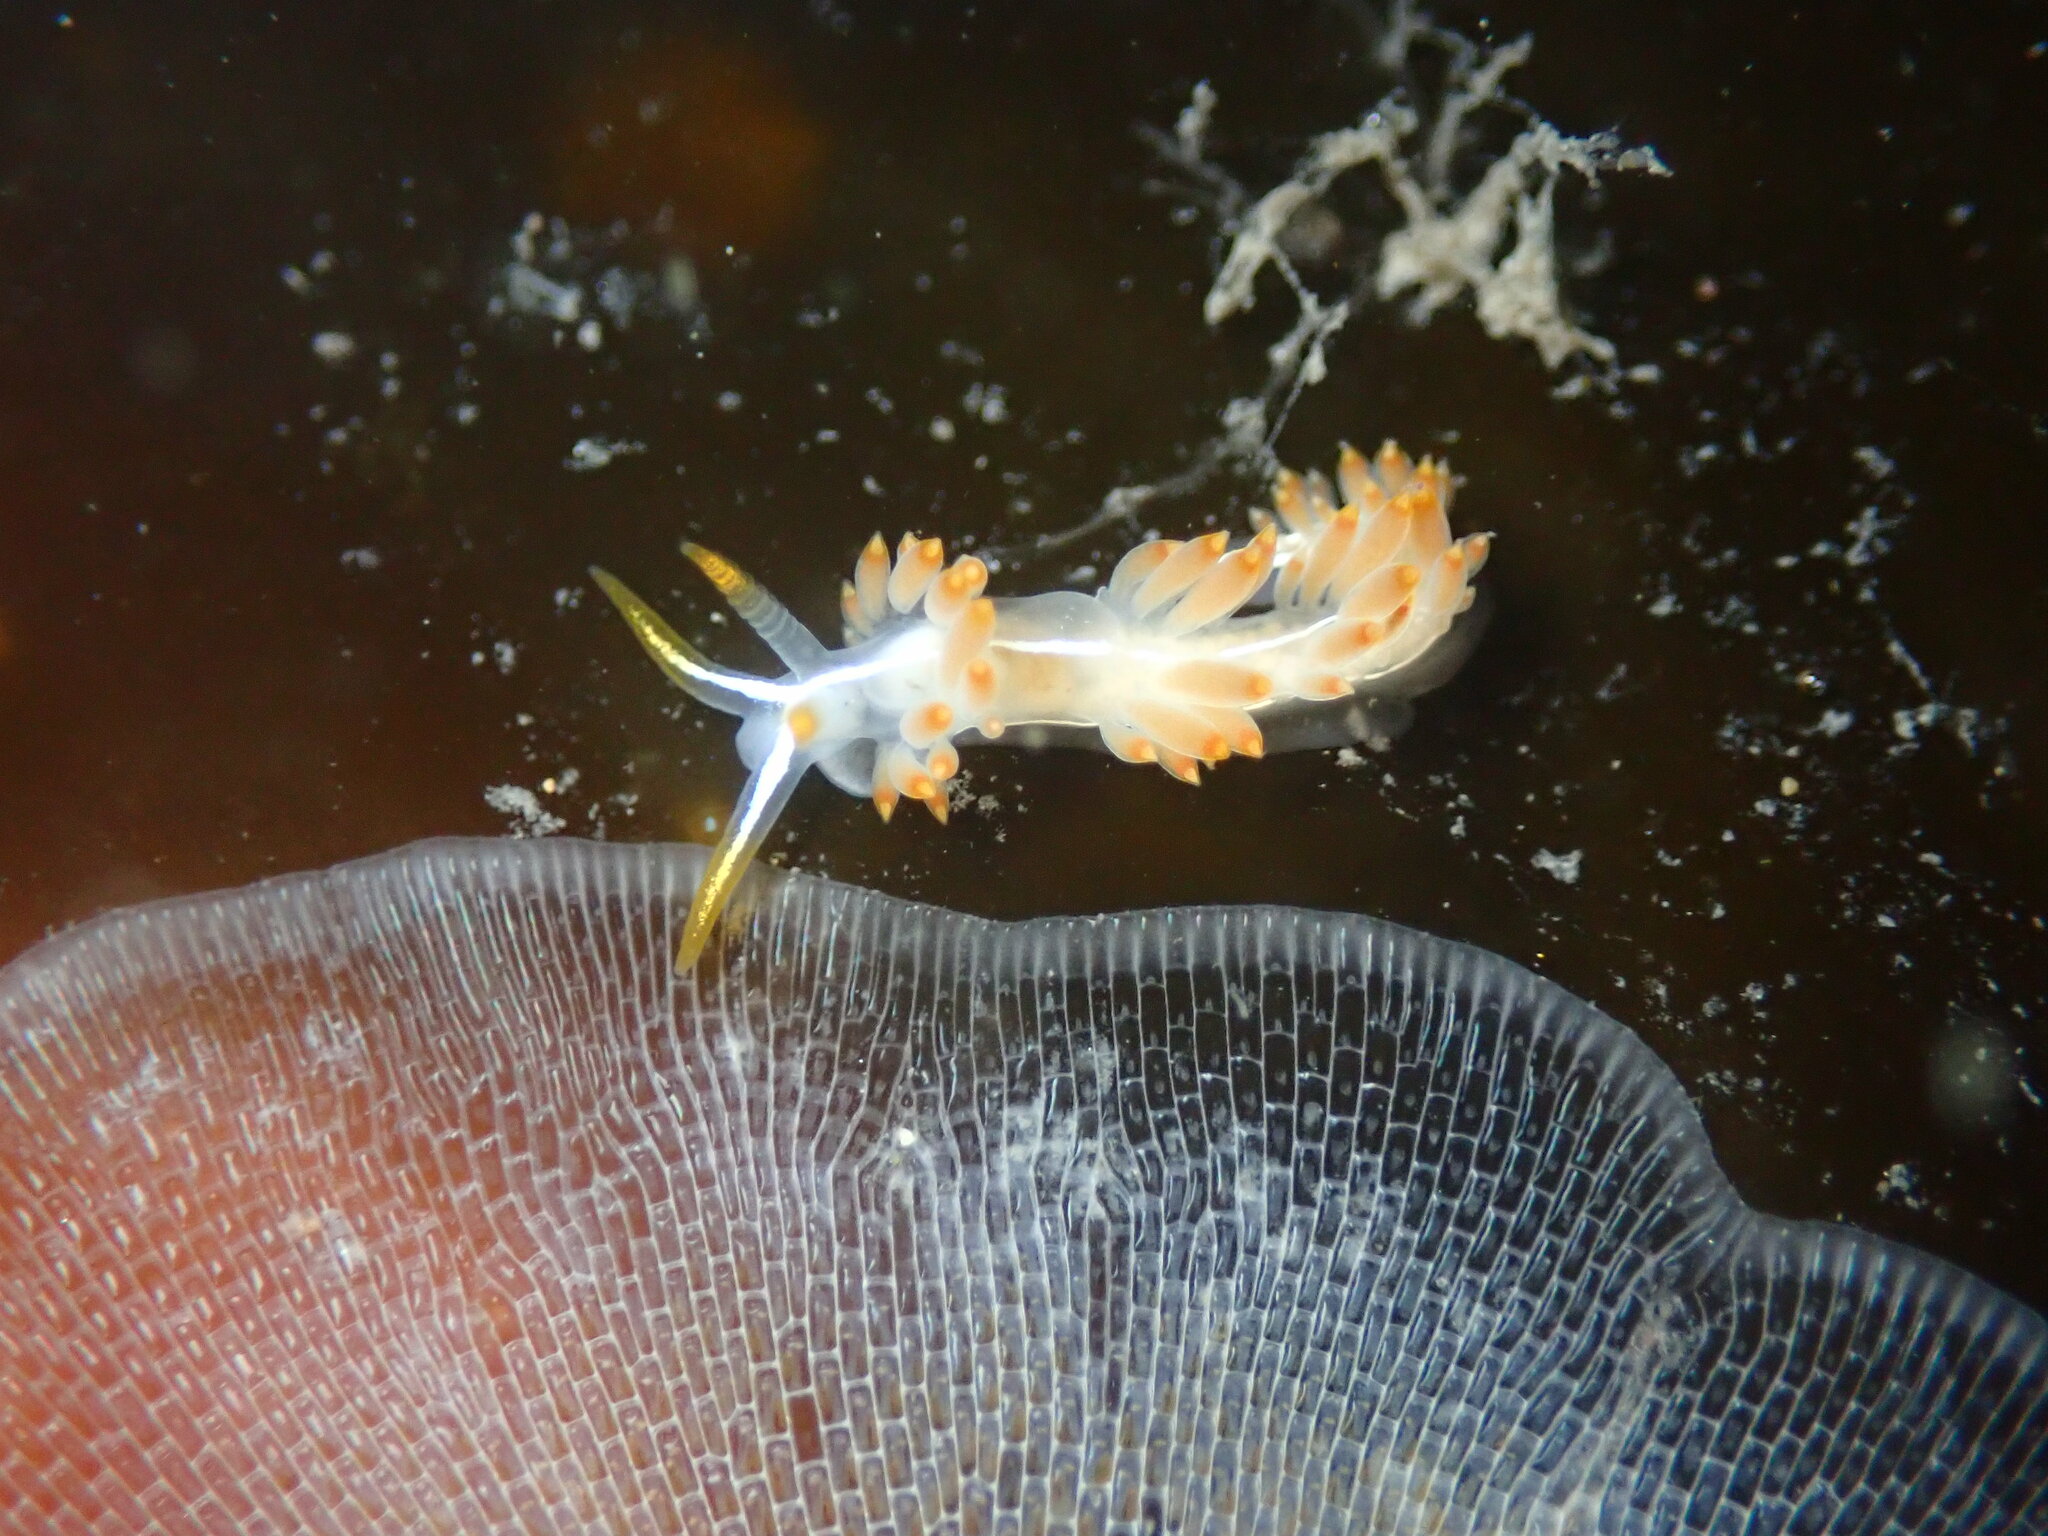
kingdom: Animalia
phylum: Mollusca
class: Gastropoda
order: Nudibranchia
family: Coryphellidae
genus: Coryphella
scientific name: Coryphella trilineata
